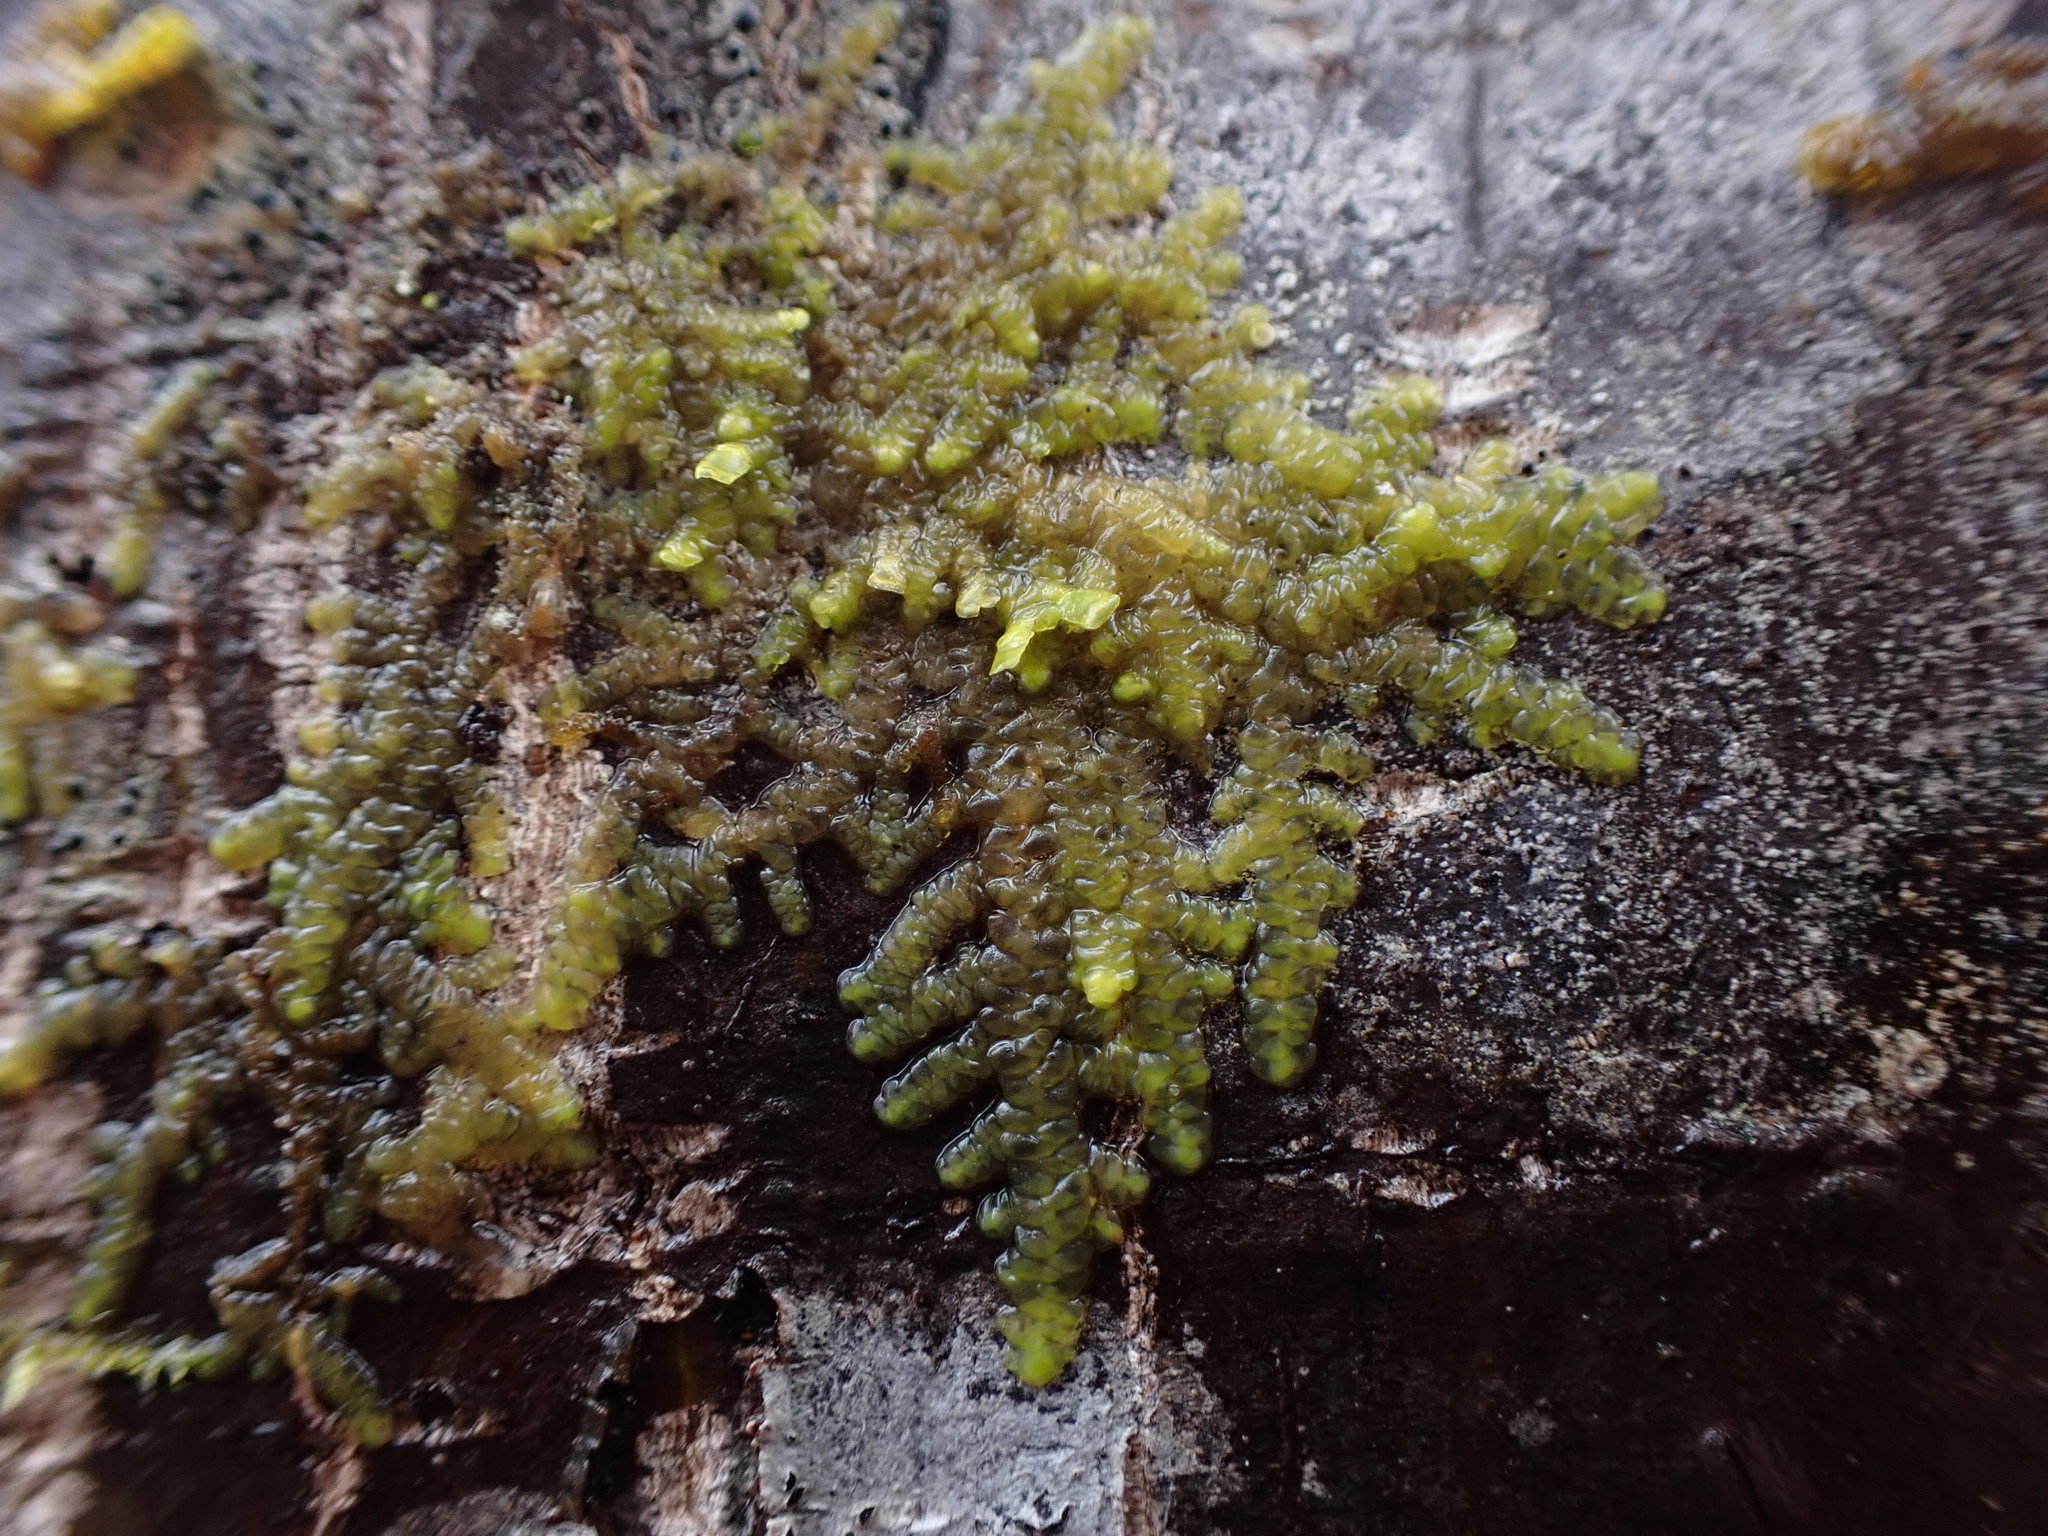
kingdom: Plantae
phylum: Marchantiophyta
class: Jungermanniopsida
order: Porellales
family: Radulaceae
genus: Radula
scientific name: Radula complanata
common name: Flat-leaved scalewort
